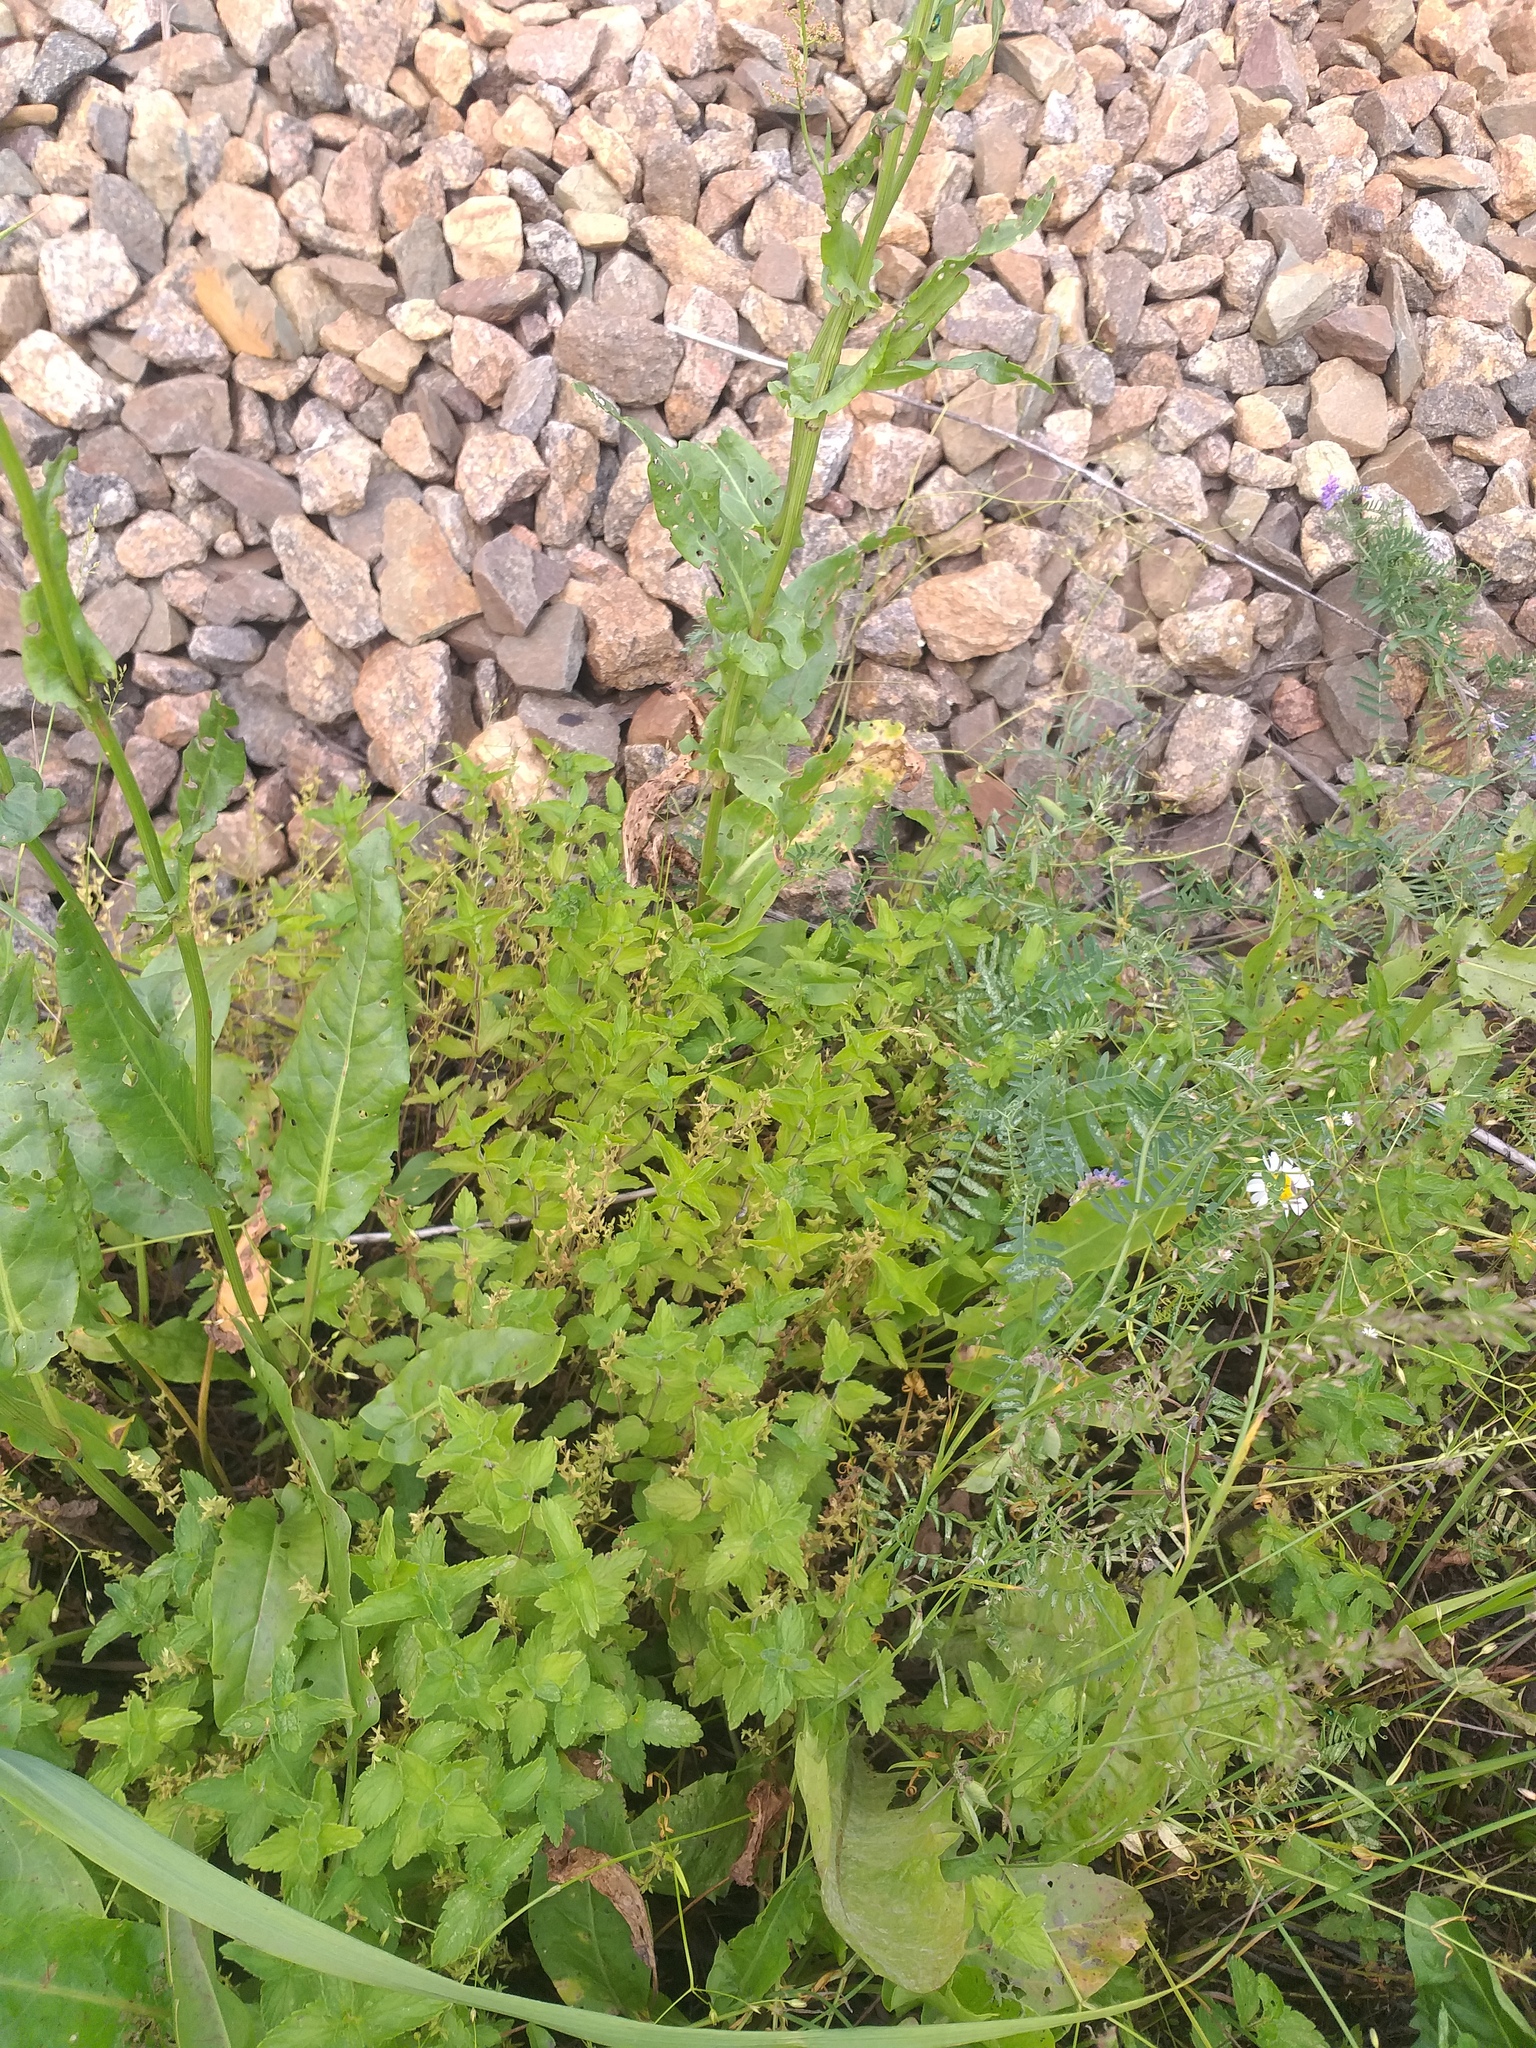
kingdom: Plantae
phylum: Tracheophyta
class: Magnoliopsida
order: Lamiales
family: Plantaginaceae
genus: Veronica
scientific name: Veronica chamaedrys
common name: Germander speedwell
